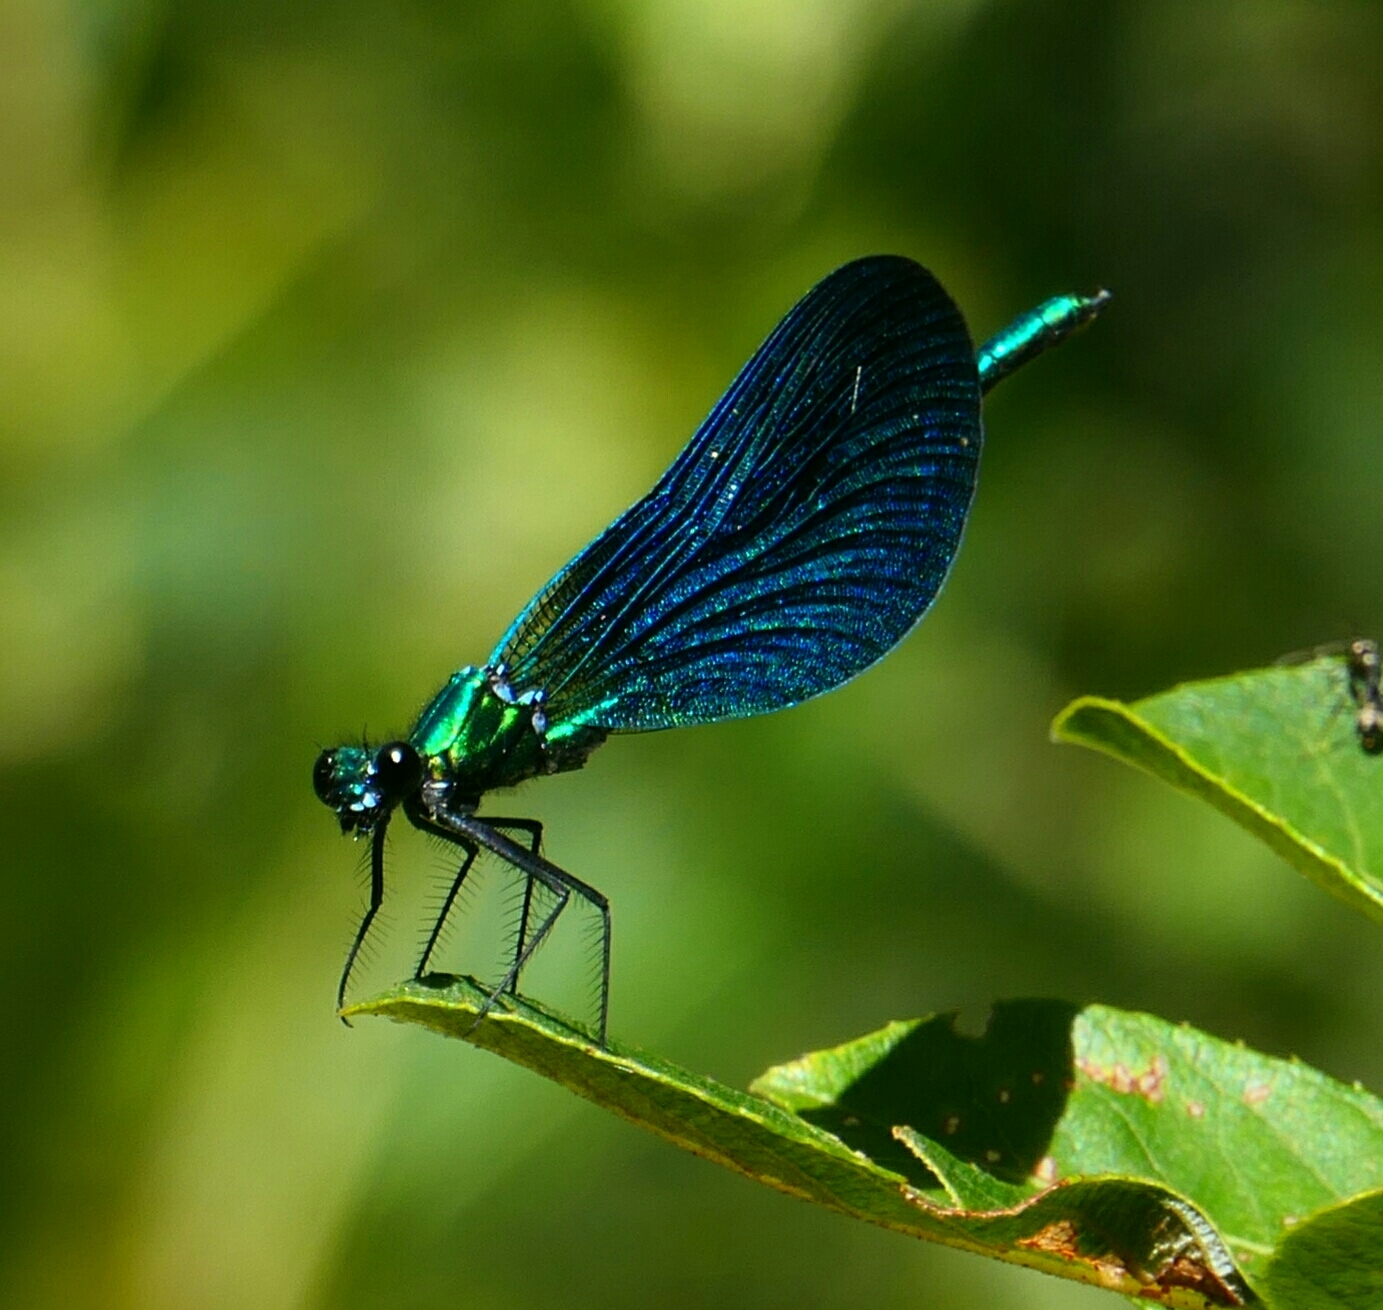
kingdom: Animalia
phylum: Arthropoda
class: Insecta
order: Odonata
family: Calopterygidae
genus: Calopteryx
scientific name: Calopteryx virgo
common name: Beautiful demoiselle
